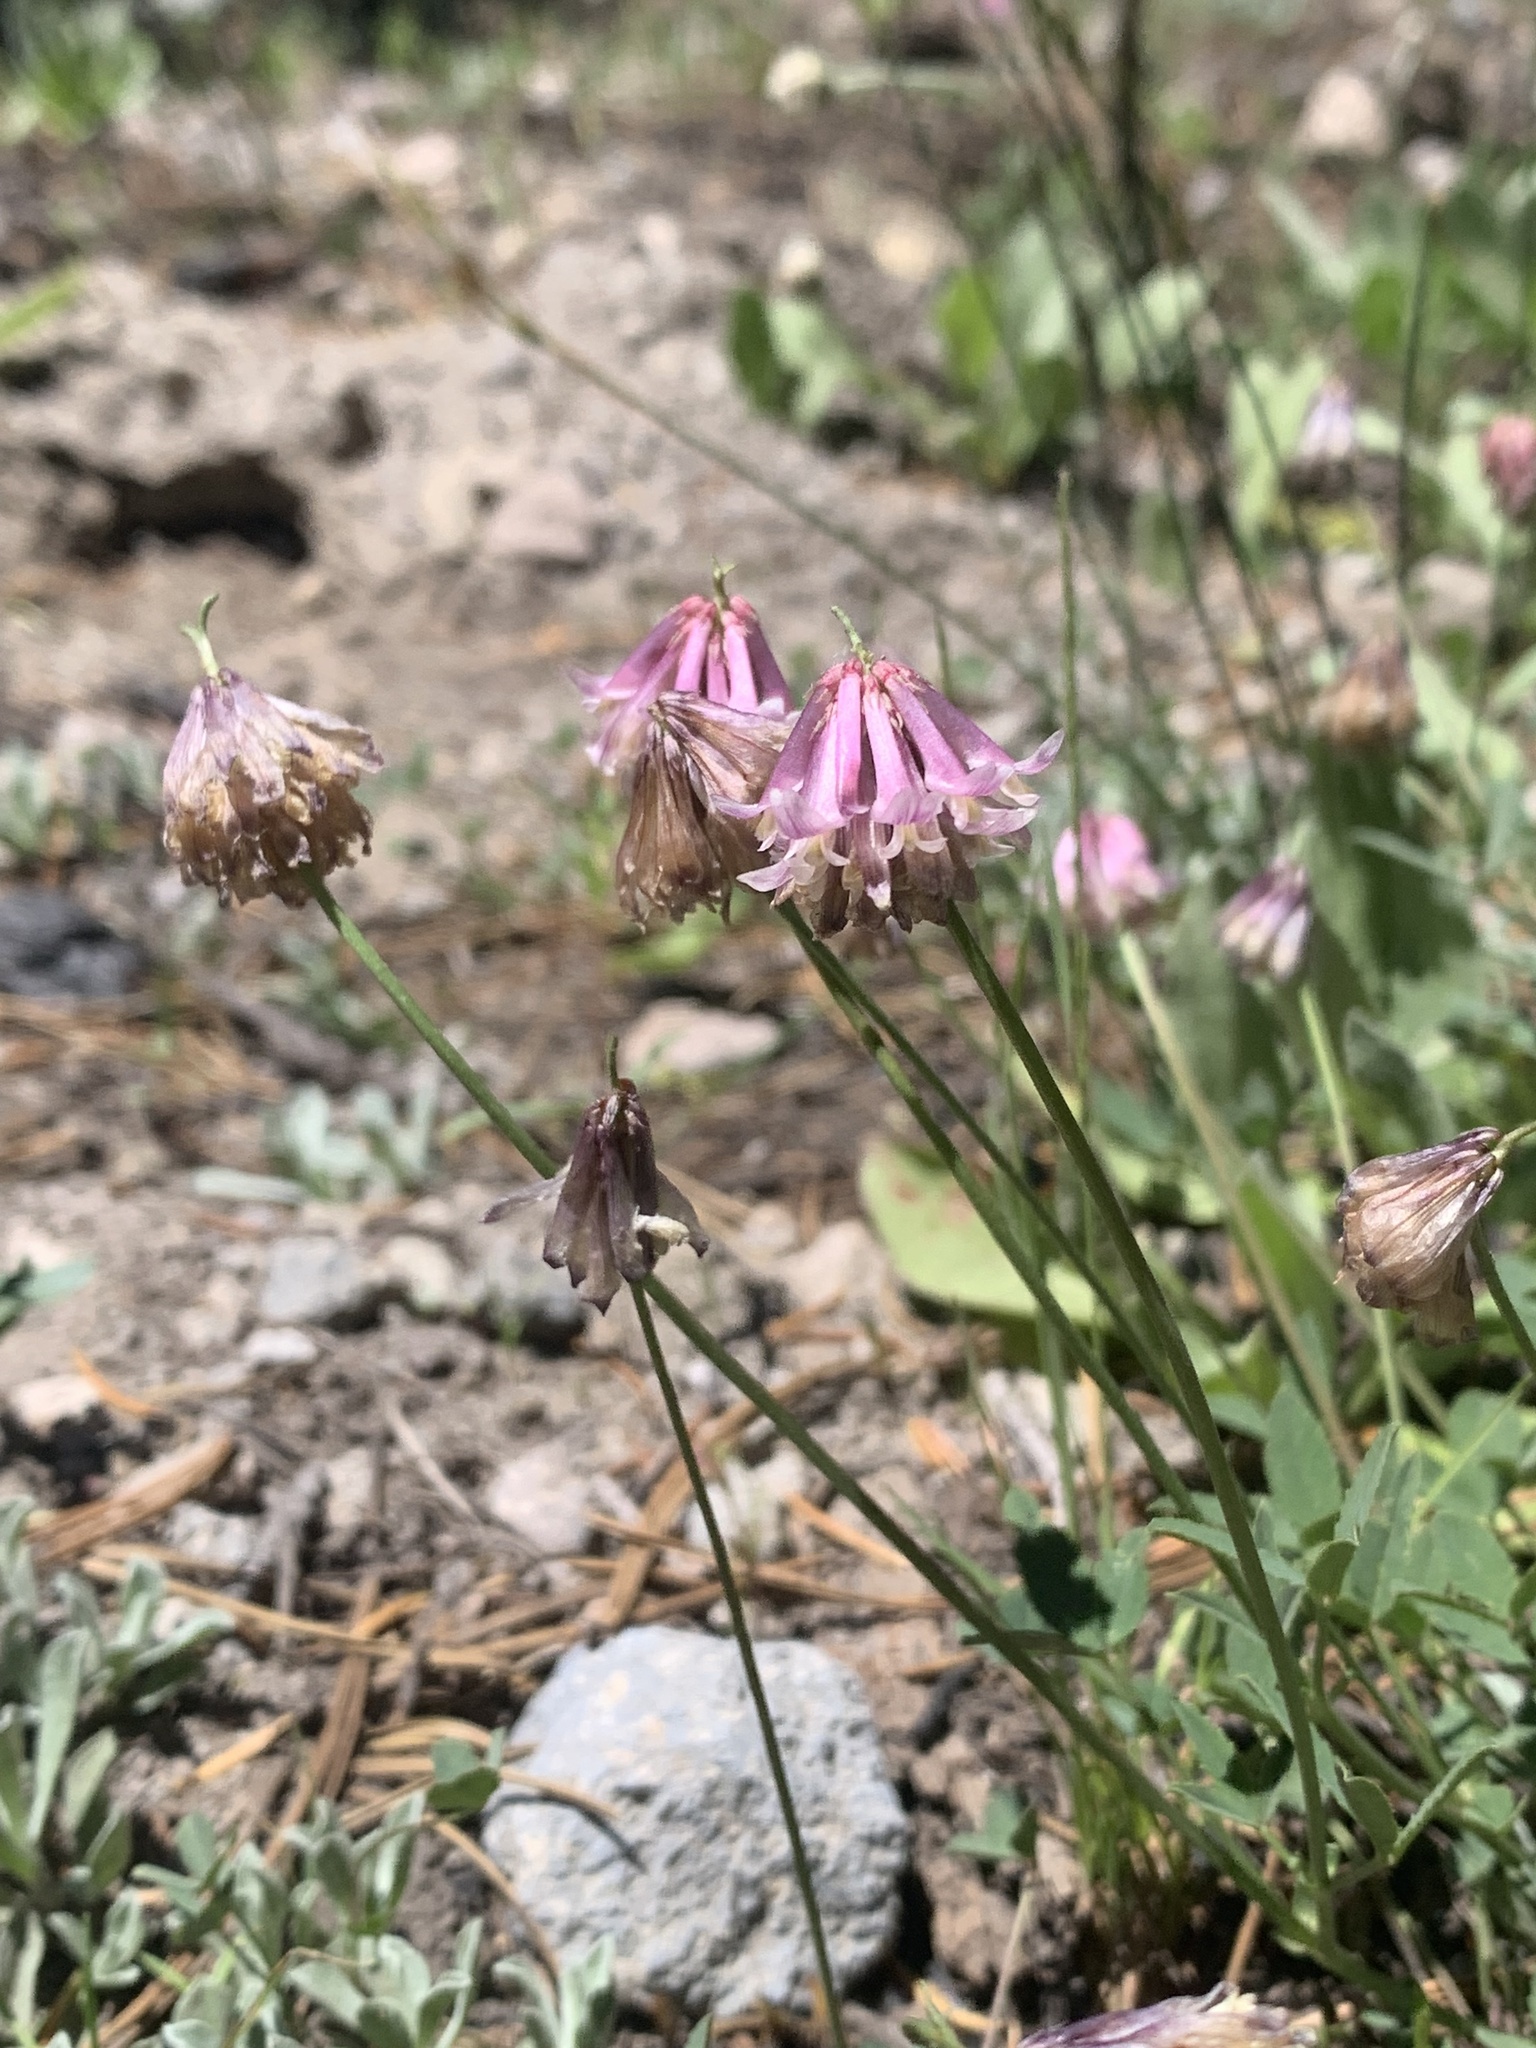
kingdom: Plantae
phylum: Tracheophyta
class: Magnoliopsida
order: Fabales
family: Fabaceae
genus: Trifolium
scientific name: Trifolium productum
